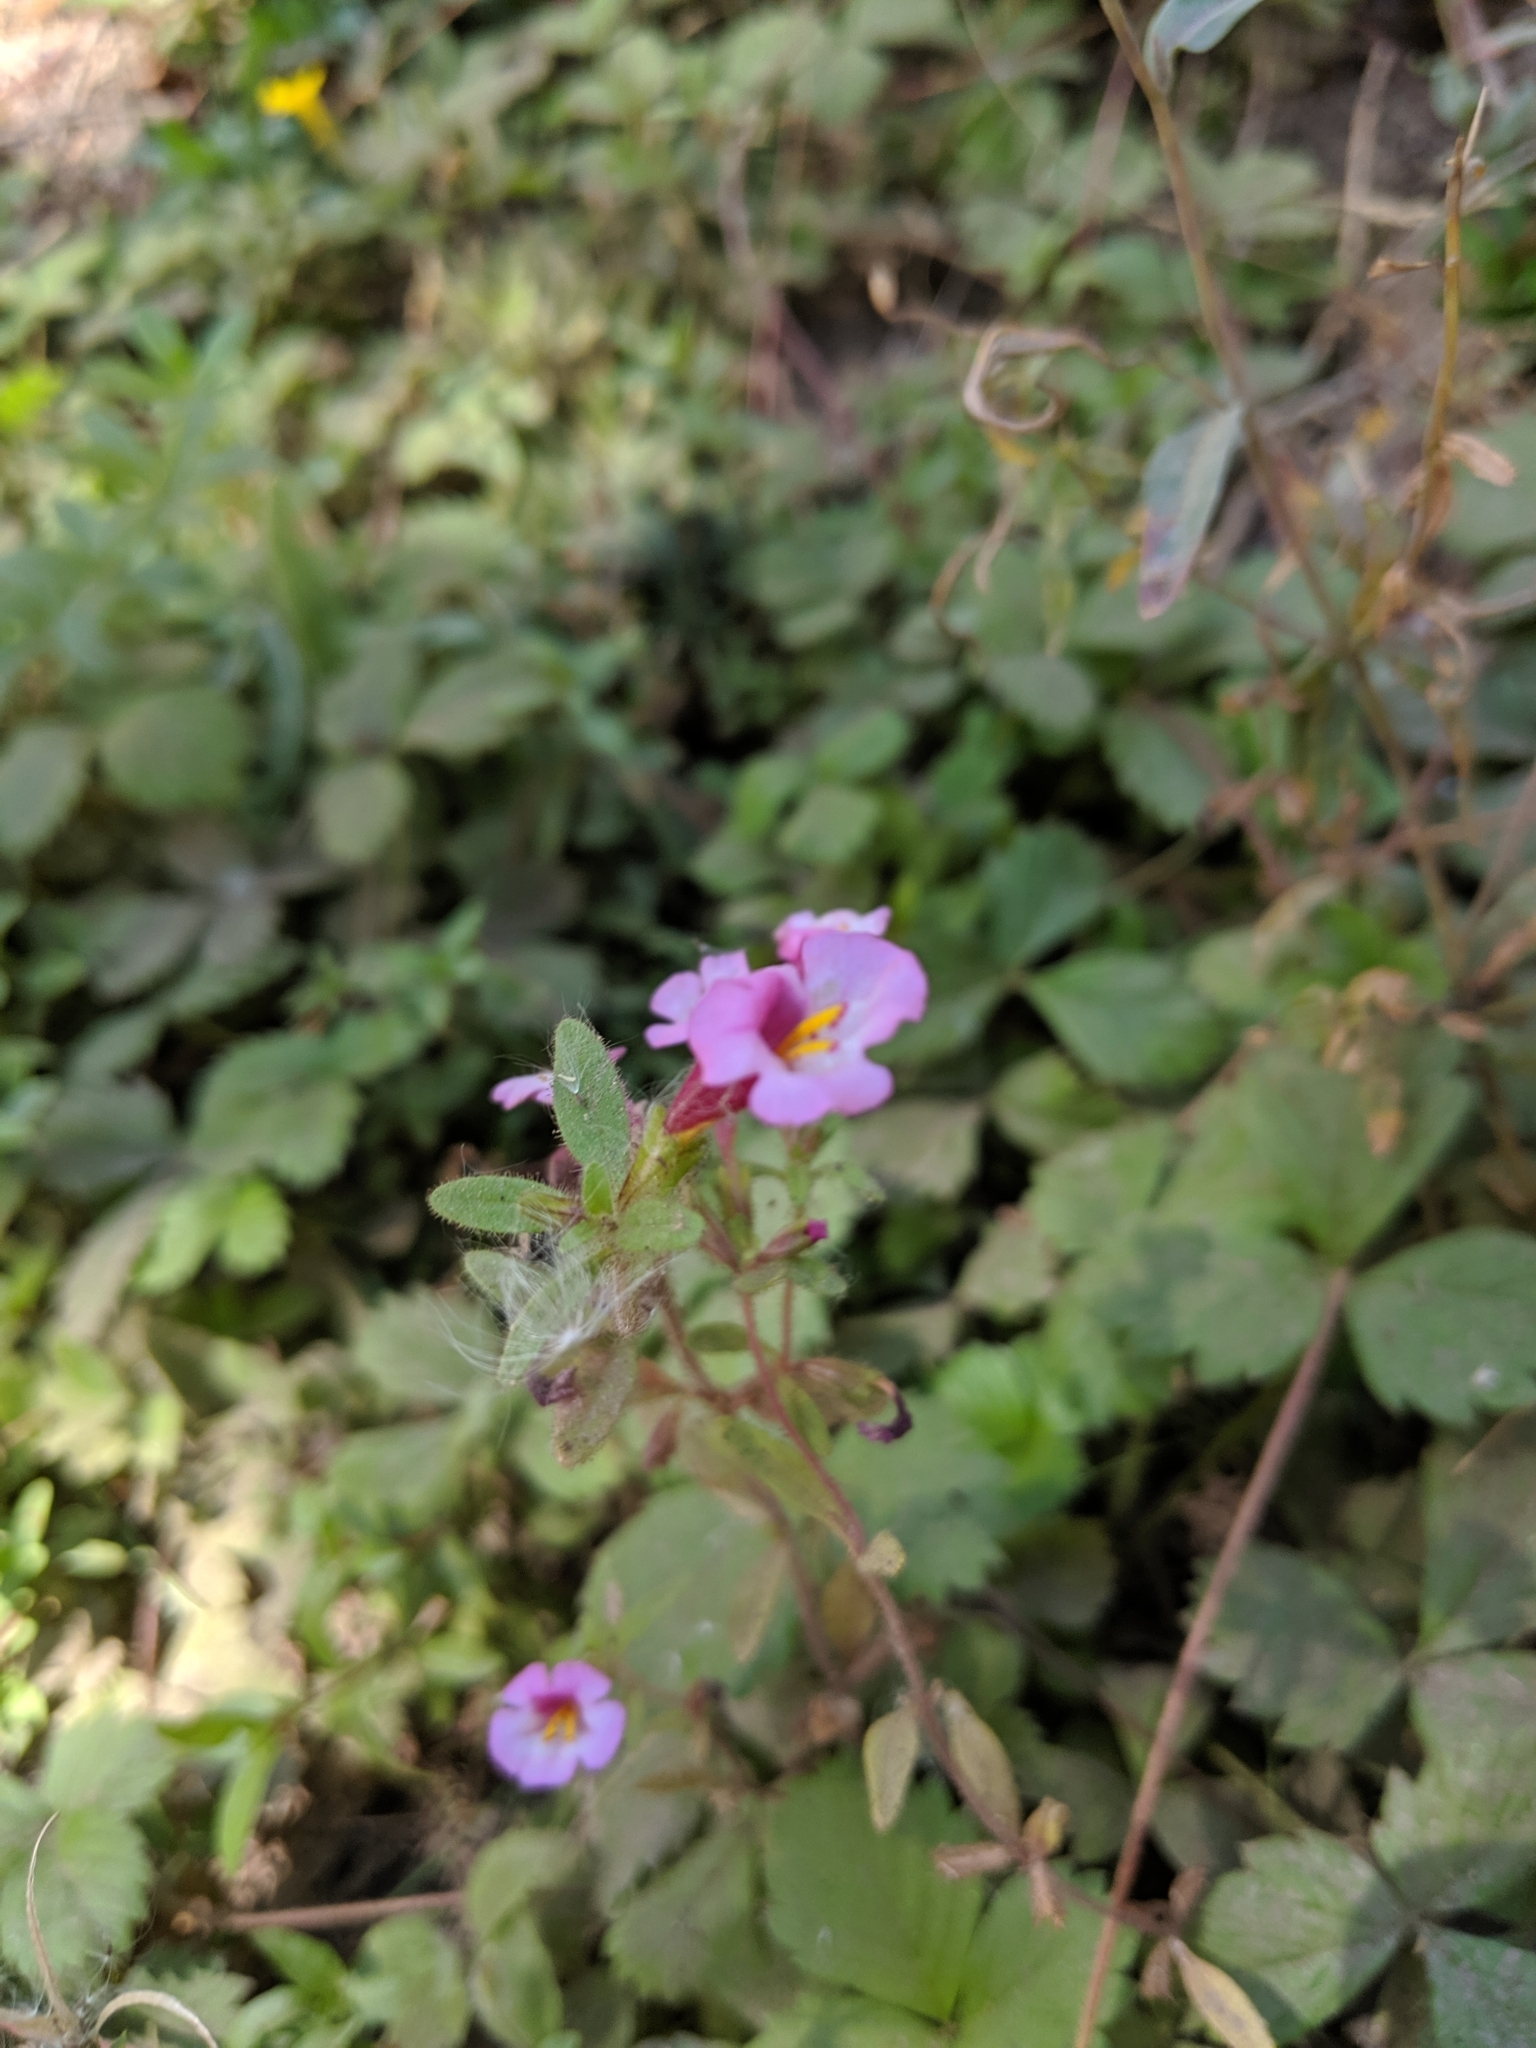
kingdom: Plantae
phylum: Tracheophyta
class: Magnoliopsida
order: Lamiales
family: Phrymaceae
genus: Diplacus
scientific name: Diplacus torreyi
